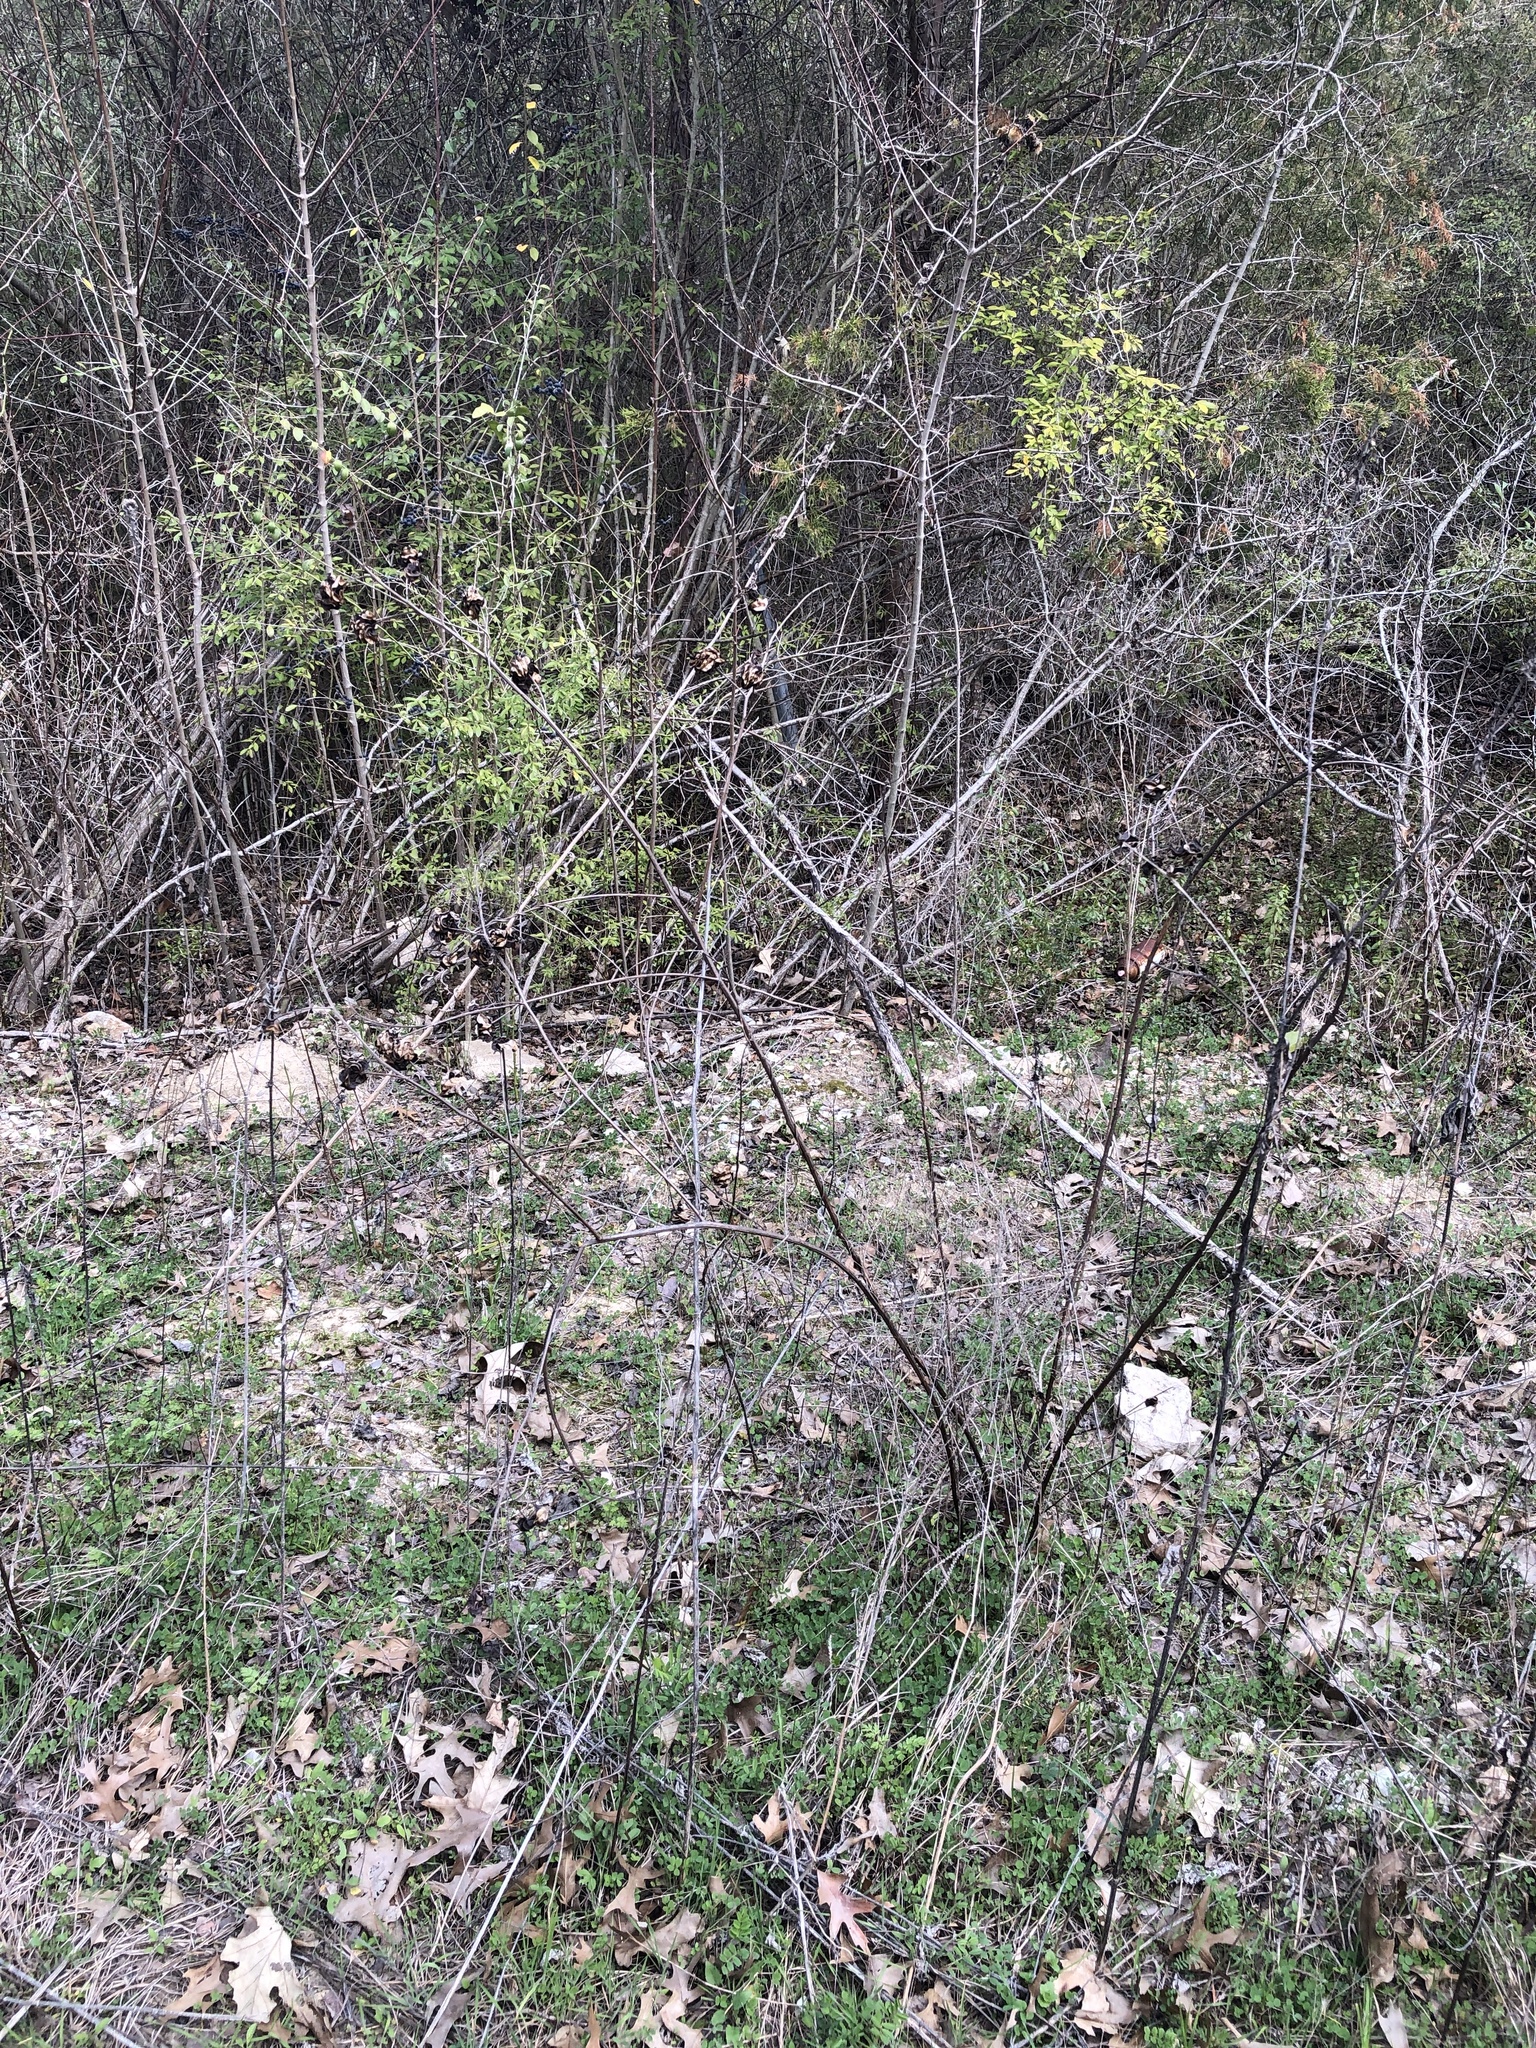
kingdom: Plantae
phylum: Tracheophyta
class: Magnoliopsida
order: Fabales
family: Fabaceae
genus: Desmanthus
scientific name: Desmanthus illinoensis
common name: Illinois bundle-flower
